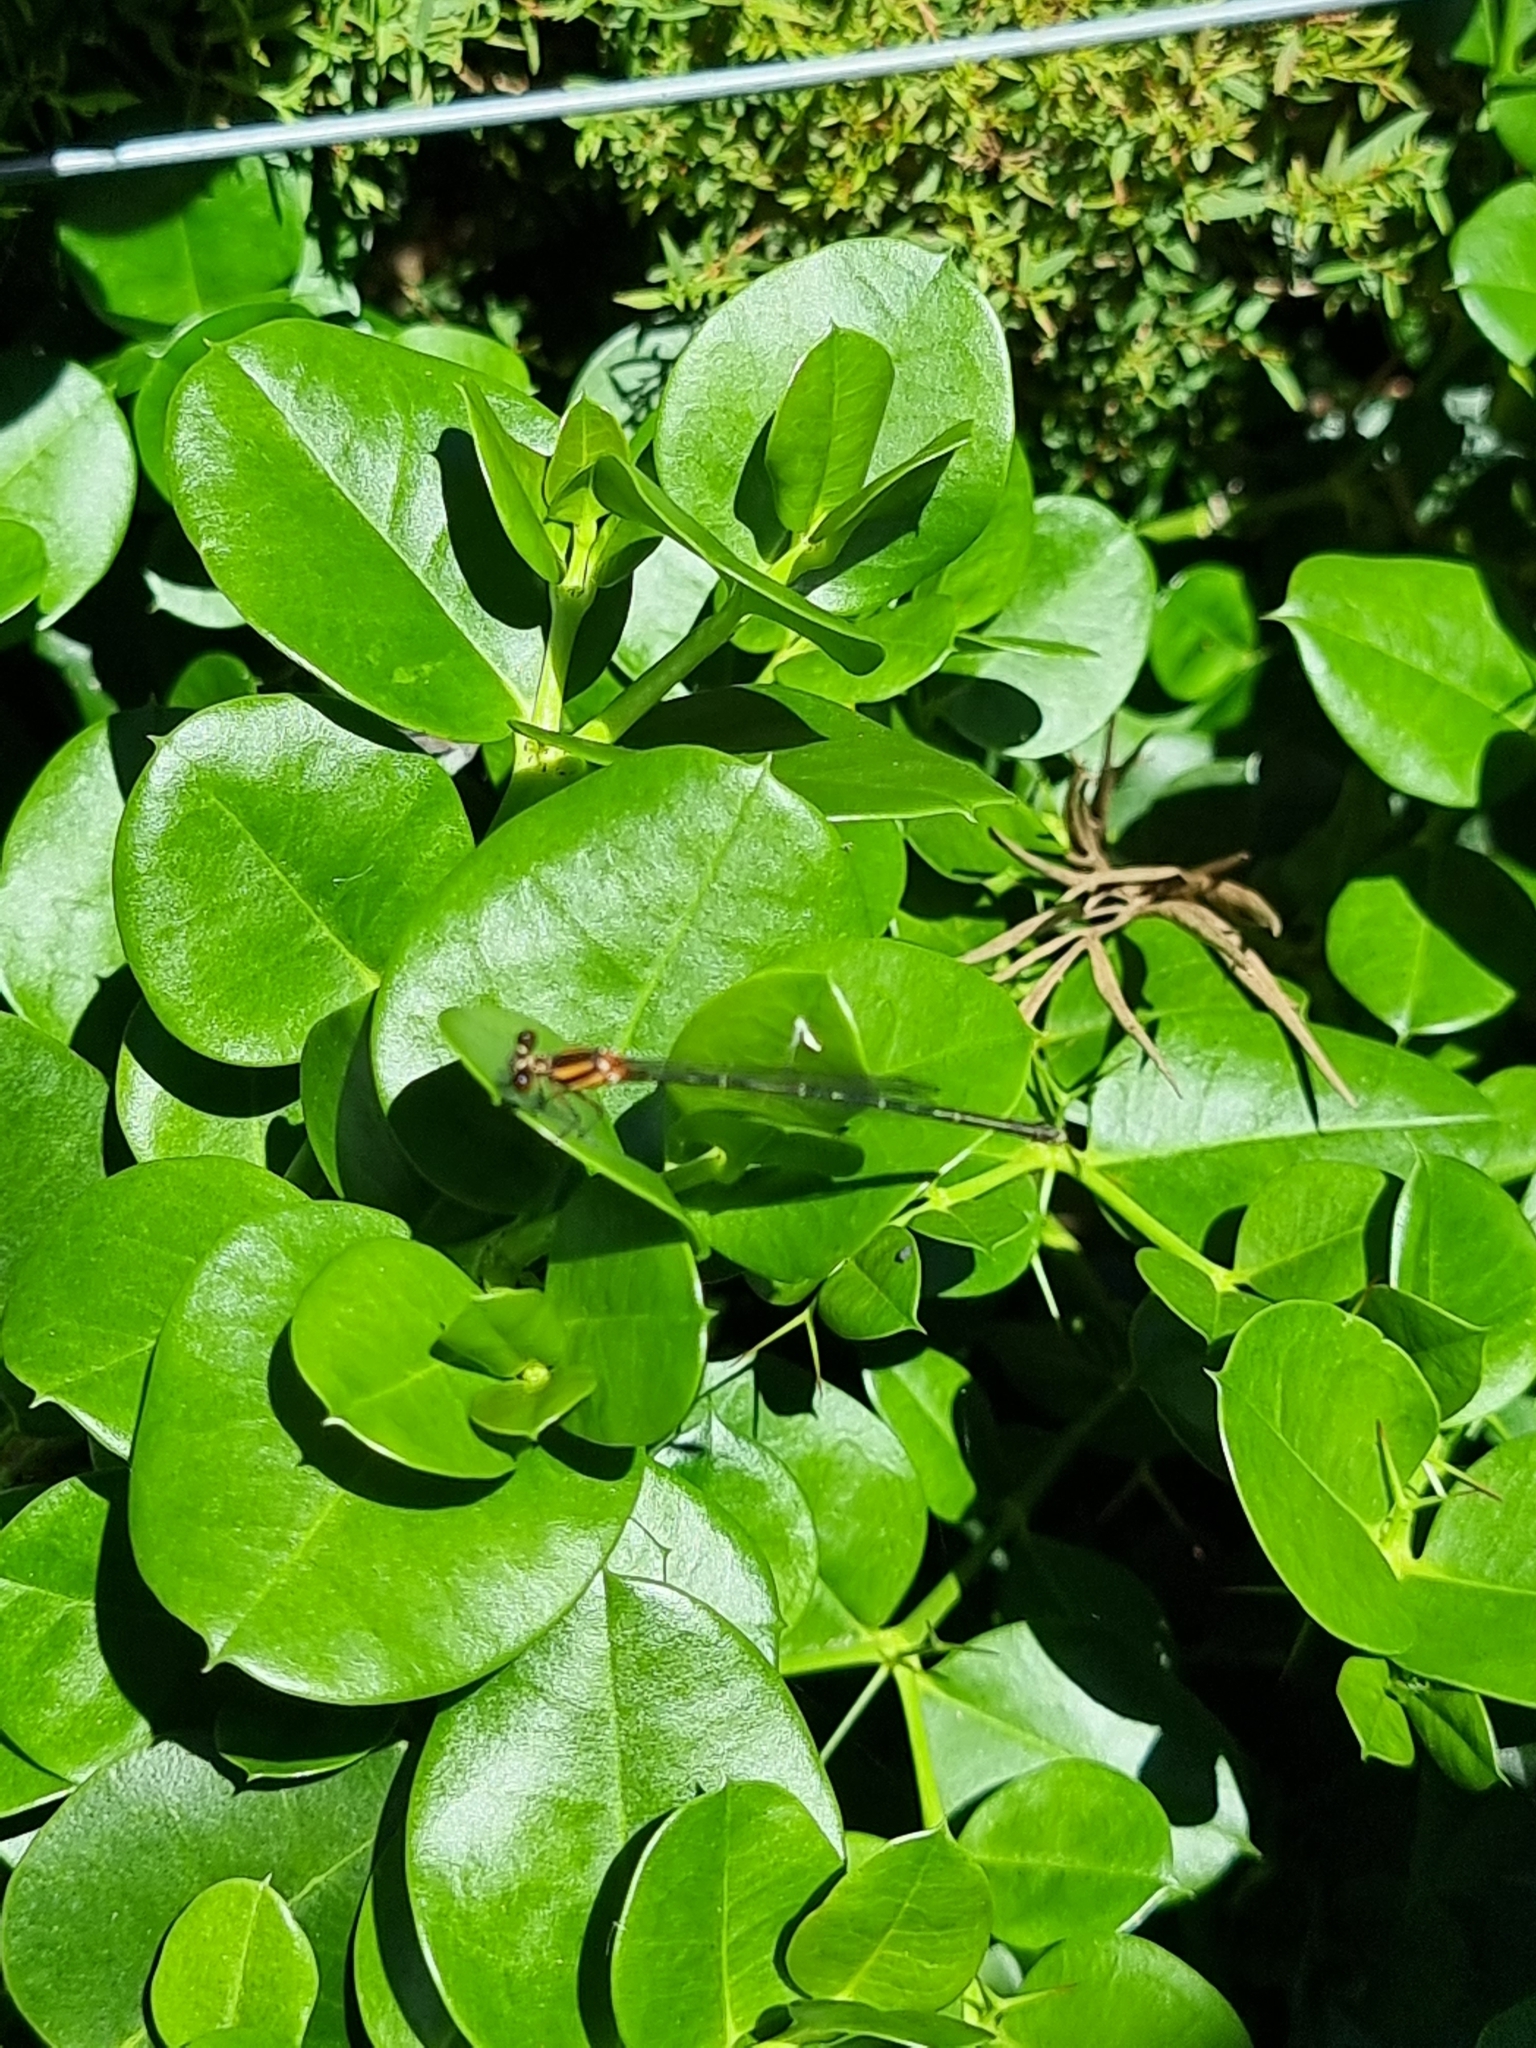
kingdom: Animalia
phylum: Arthropoda
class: Insecta
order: Odonata
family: Platycnemididae
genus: Nososticta
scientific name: Nososticta solida
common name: Orange threadtail
